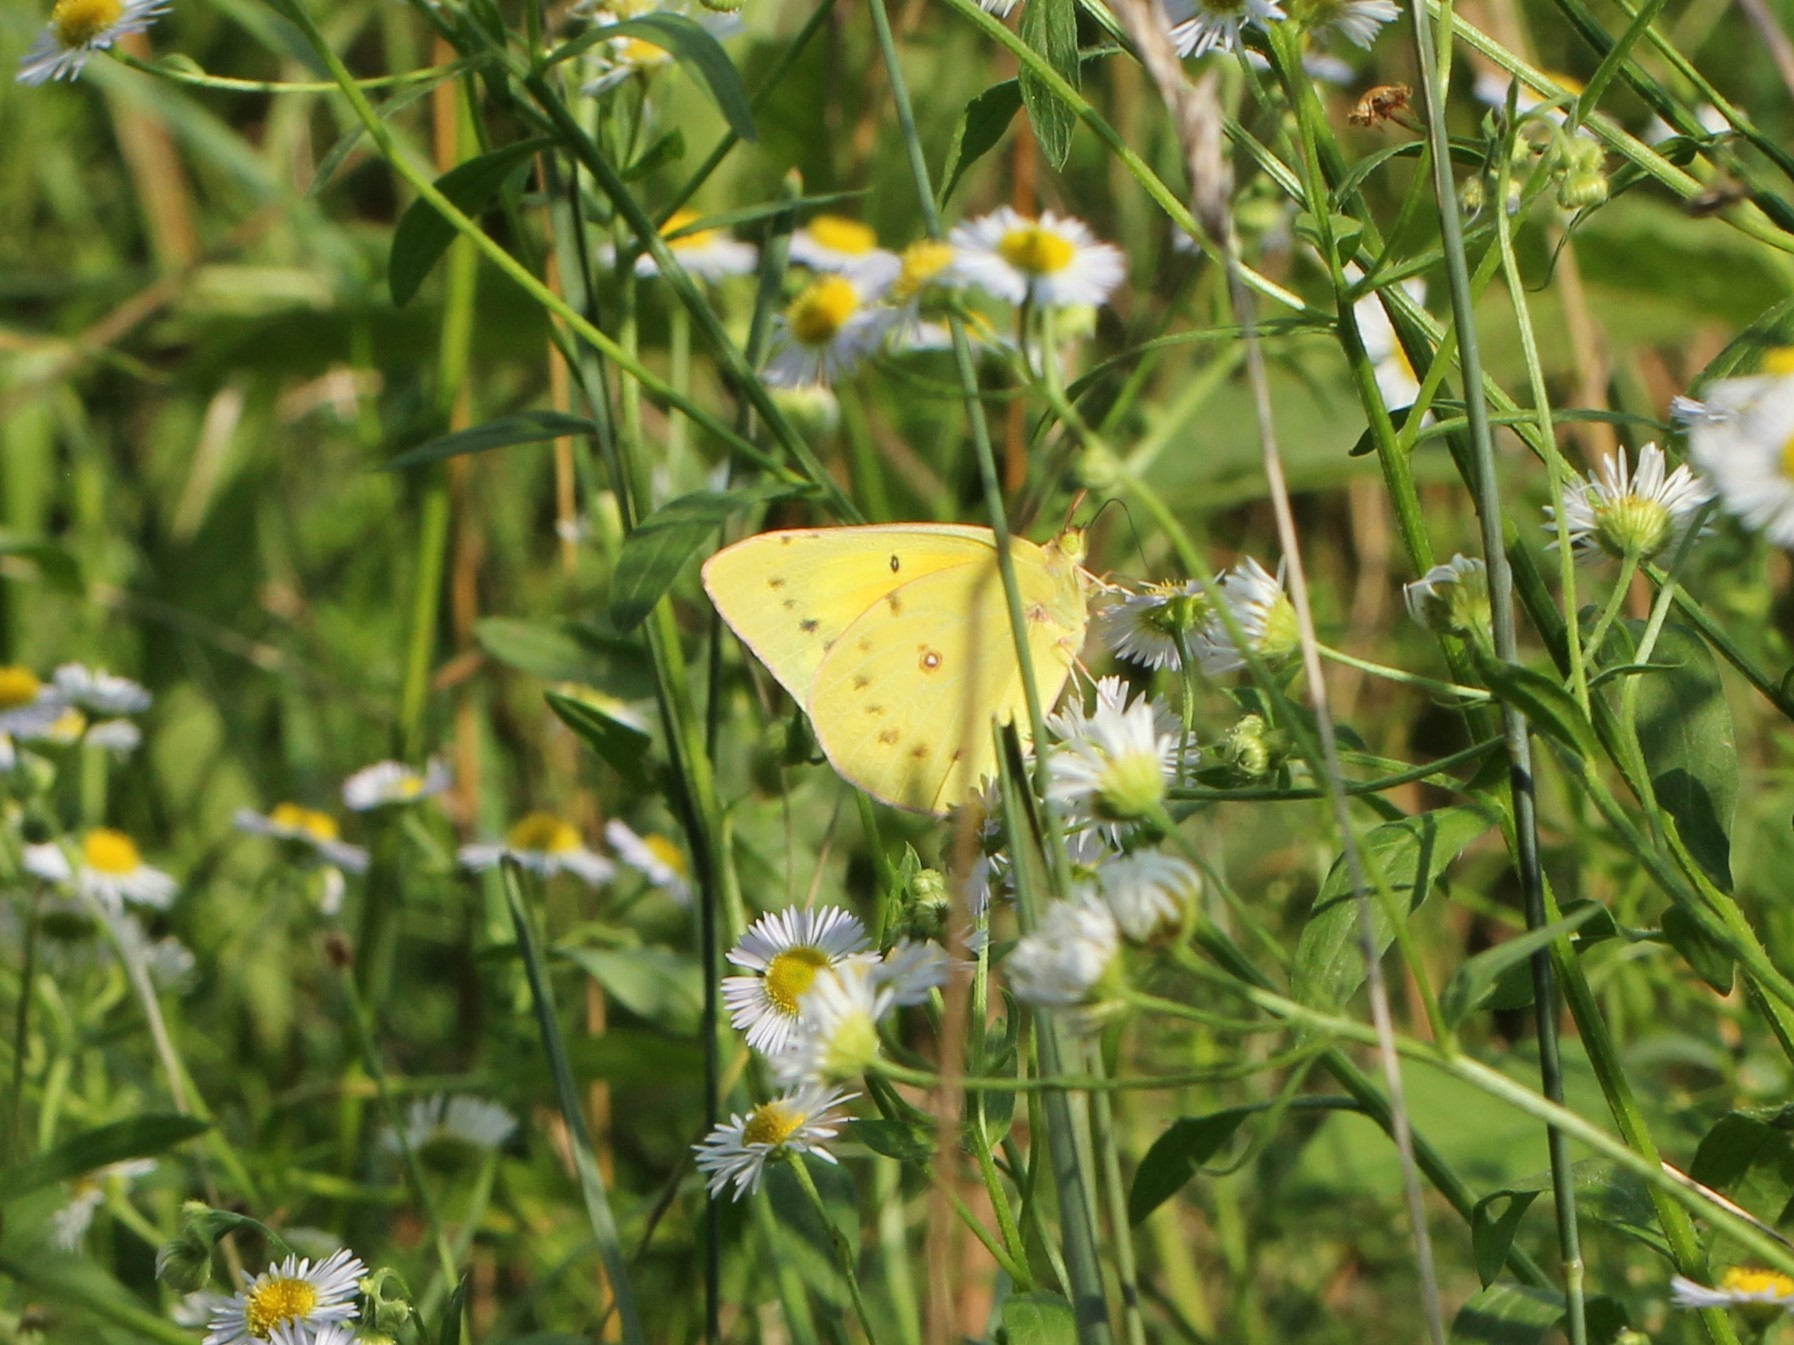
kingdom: Animalia
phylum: Arthropoda
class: Insecta
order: Lepidoptera
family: Pieridae
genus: Colias
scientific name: Colias eurytheme
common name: Alfalfa butterfly
